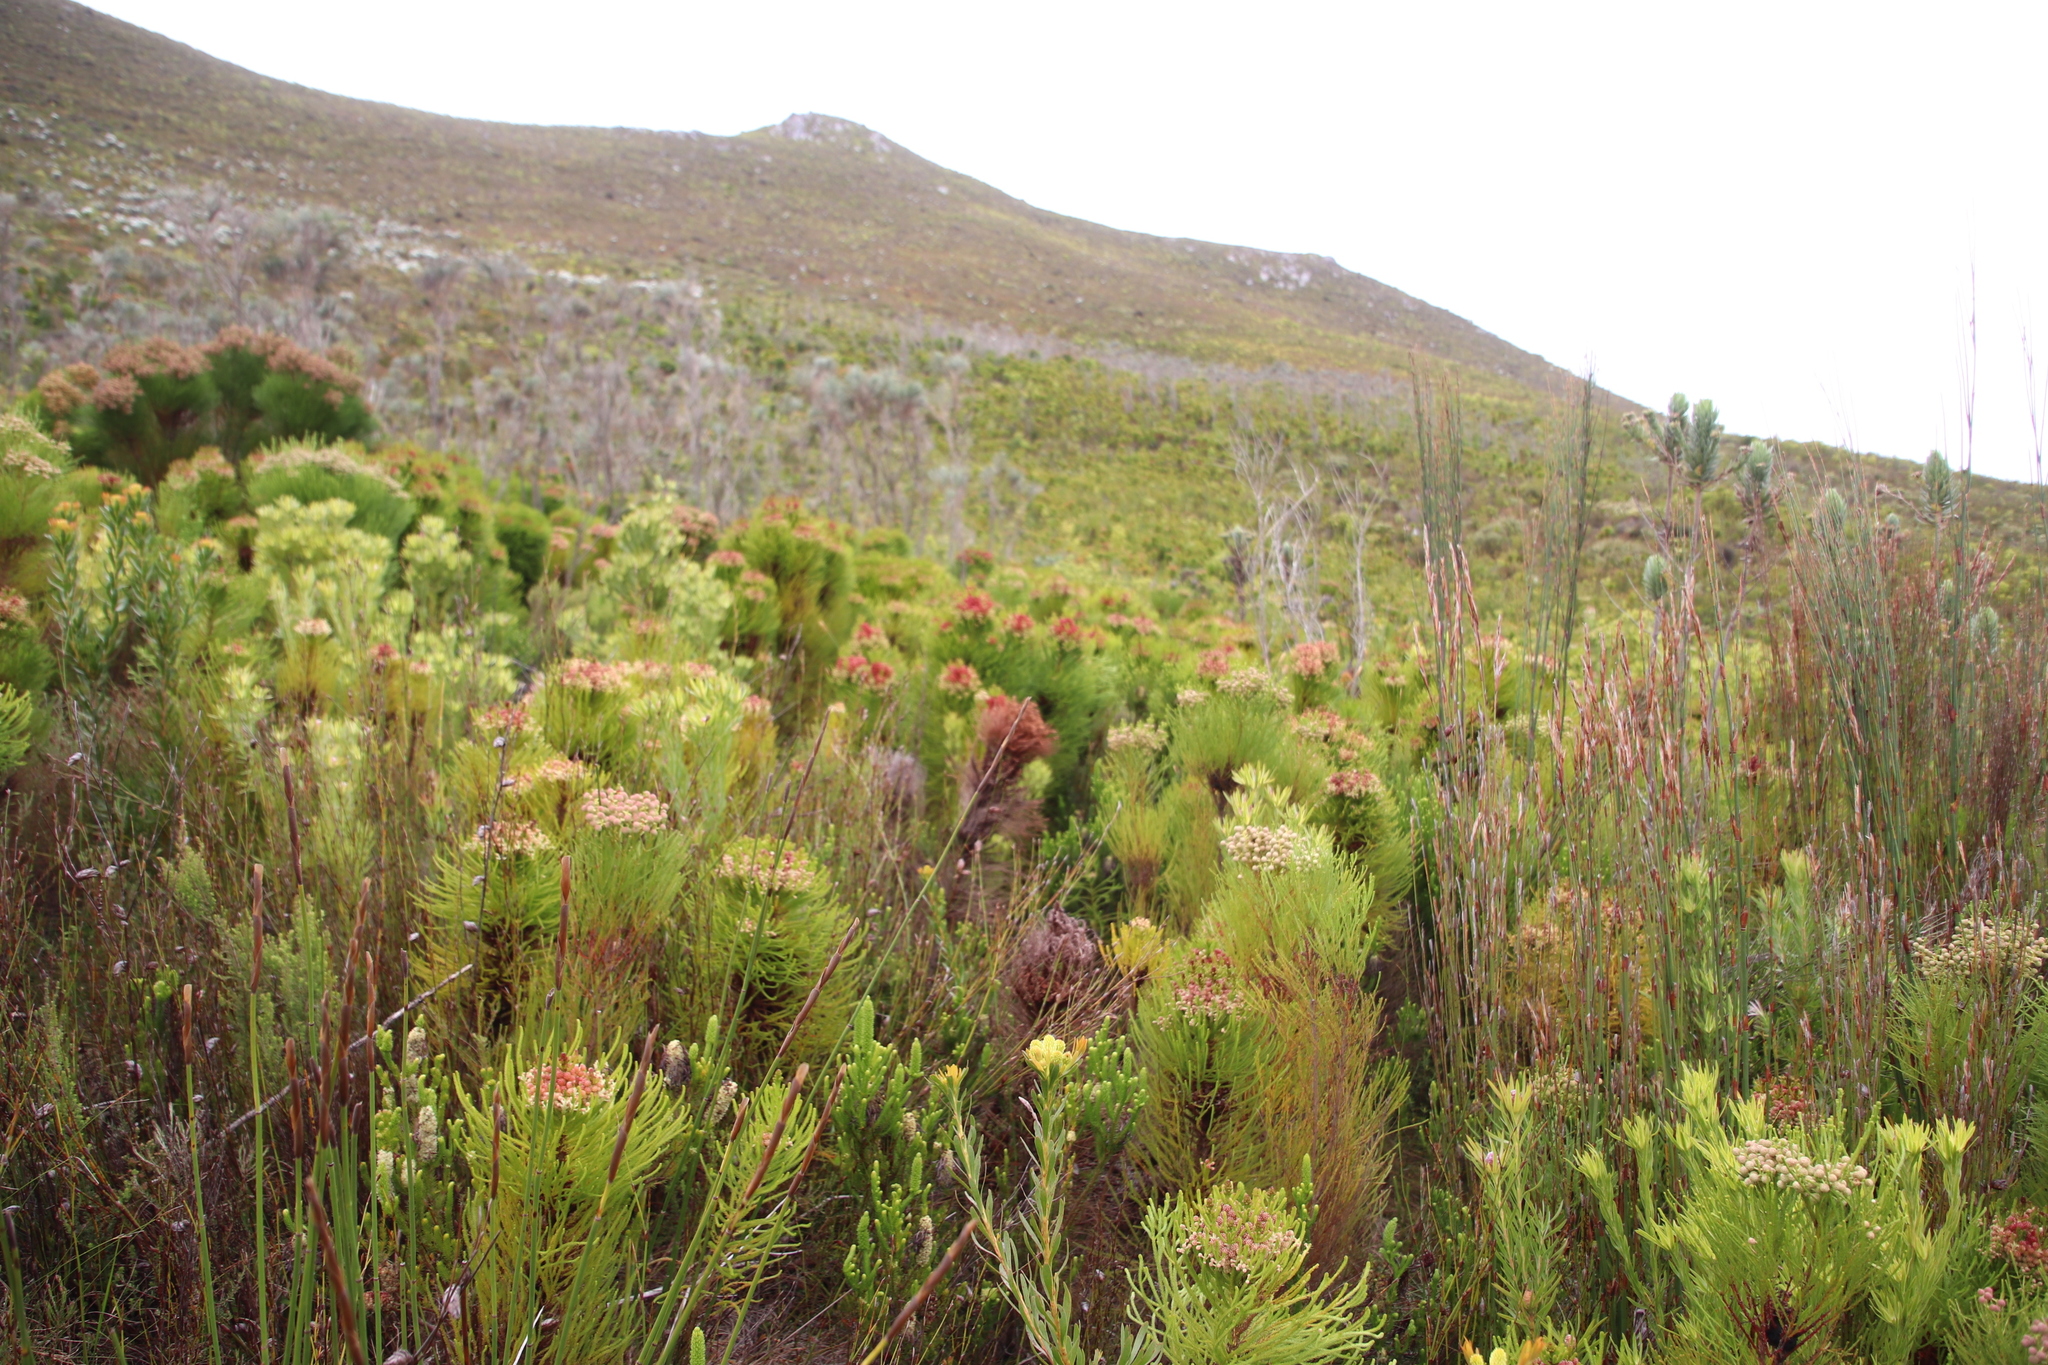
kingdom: Plantae
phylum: Tracheophyta
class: Magnoliopsida
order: Bruniales
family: Bruniaceae
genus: Berzelia
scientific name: Berzelia alopecurioides
